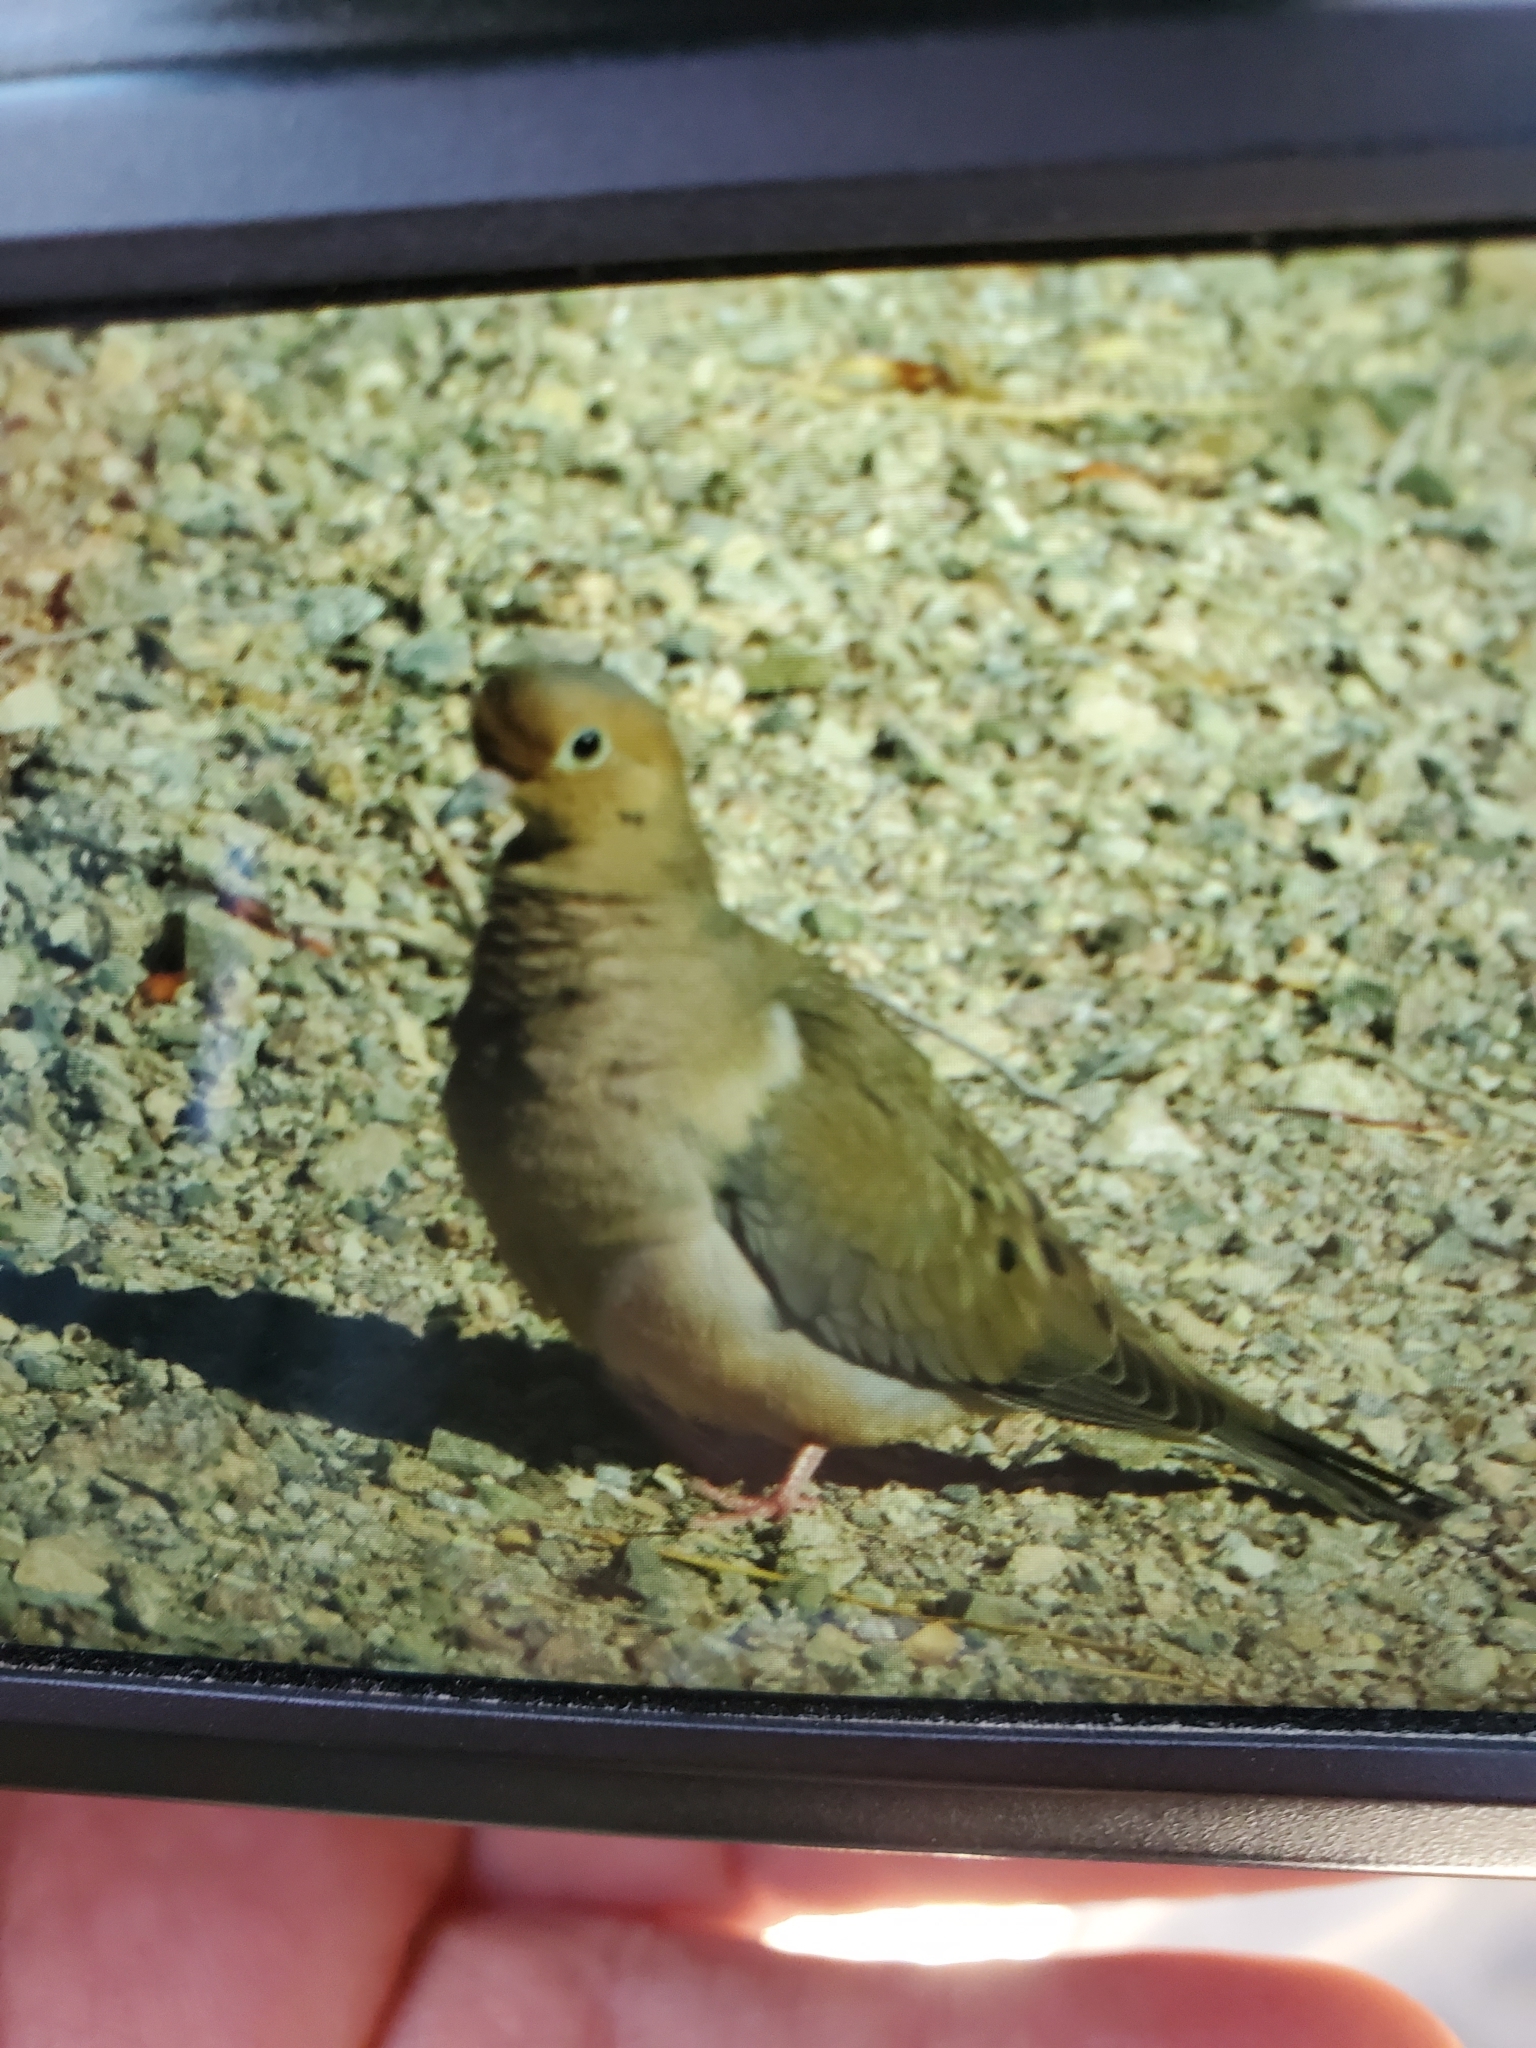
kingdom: Animalia
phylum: Chordata
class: Aves
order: Columbiformes
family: Columbidae
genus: Zenaida
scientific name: Zenaida macroura
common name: Mourning dove
